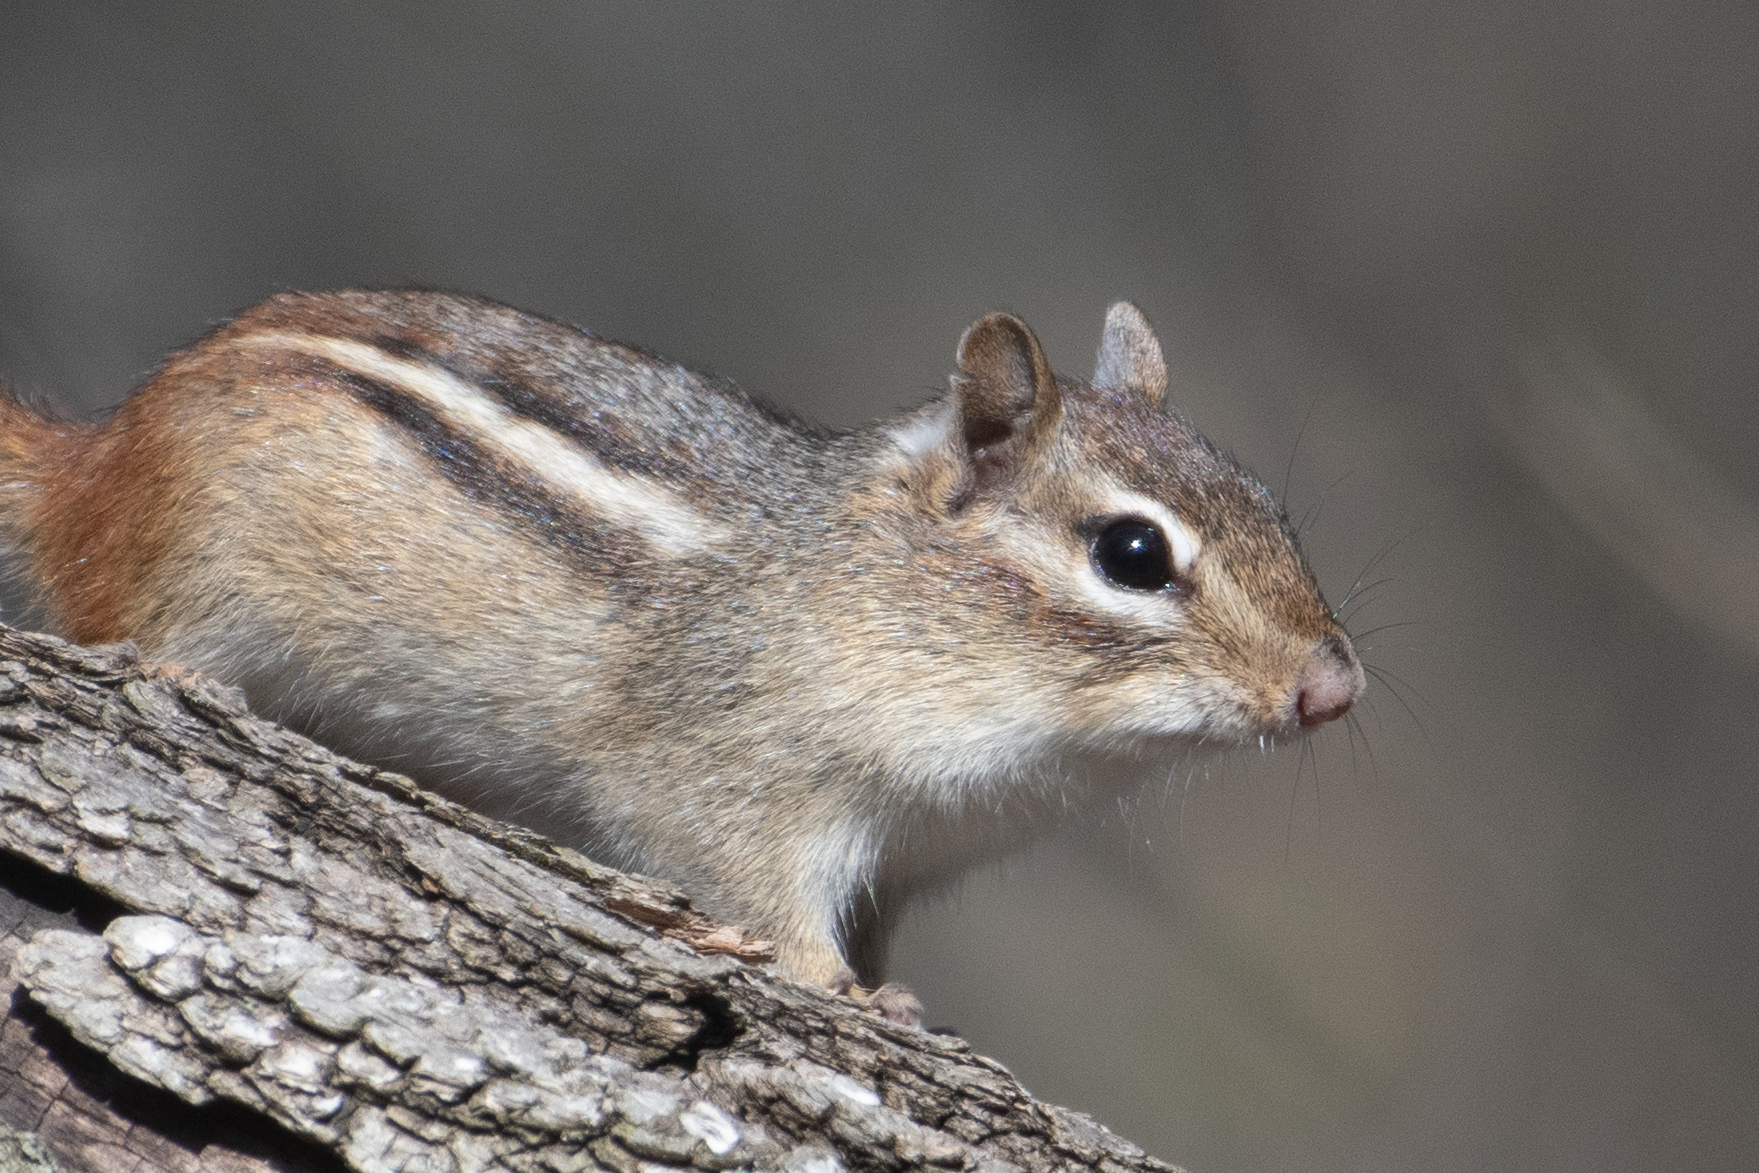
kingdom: Animalia
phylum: Chordata
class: Mammalia
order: Rodentia
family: Sciuridae
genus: Tamias
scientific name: Tamias striatus
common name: Eastern chipmunk
